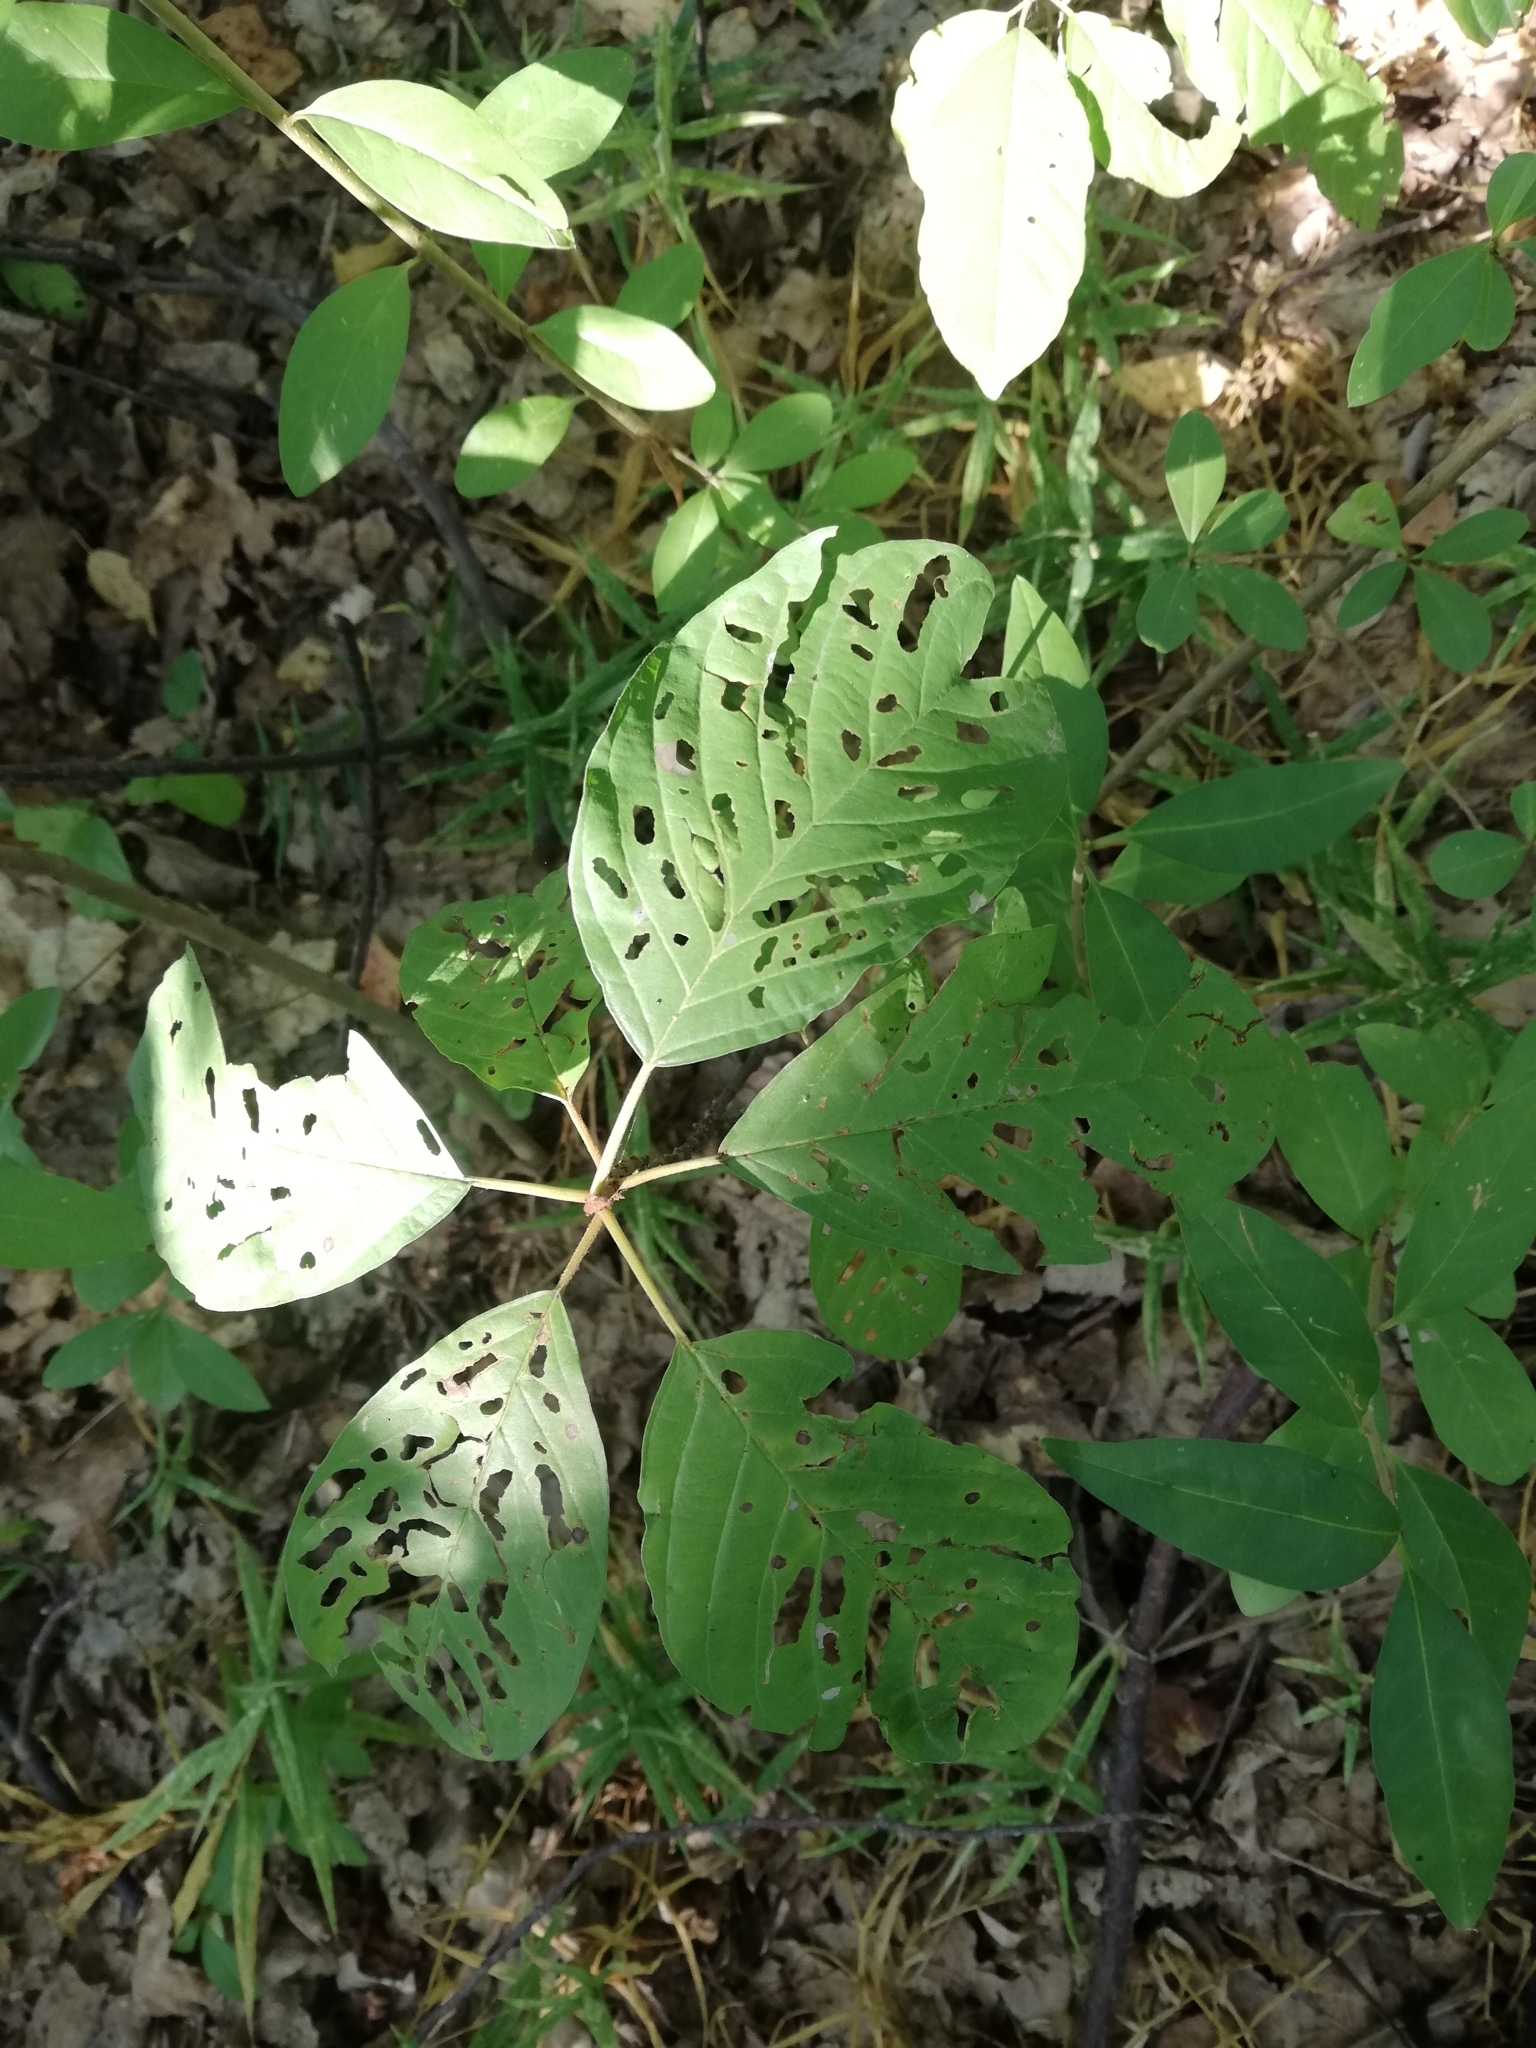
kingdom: Plantae
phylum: Tracheophyta
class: Magnoliopsida
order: Rosales
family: Rhamnaceae
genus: Frangula
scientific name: Frangula alnus
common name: Alder buckthorn
